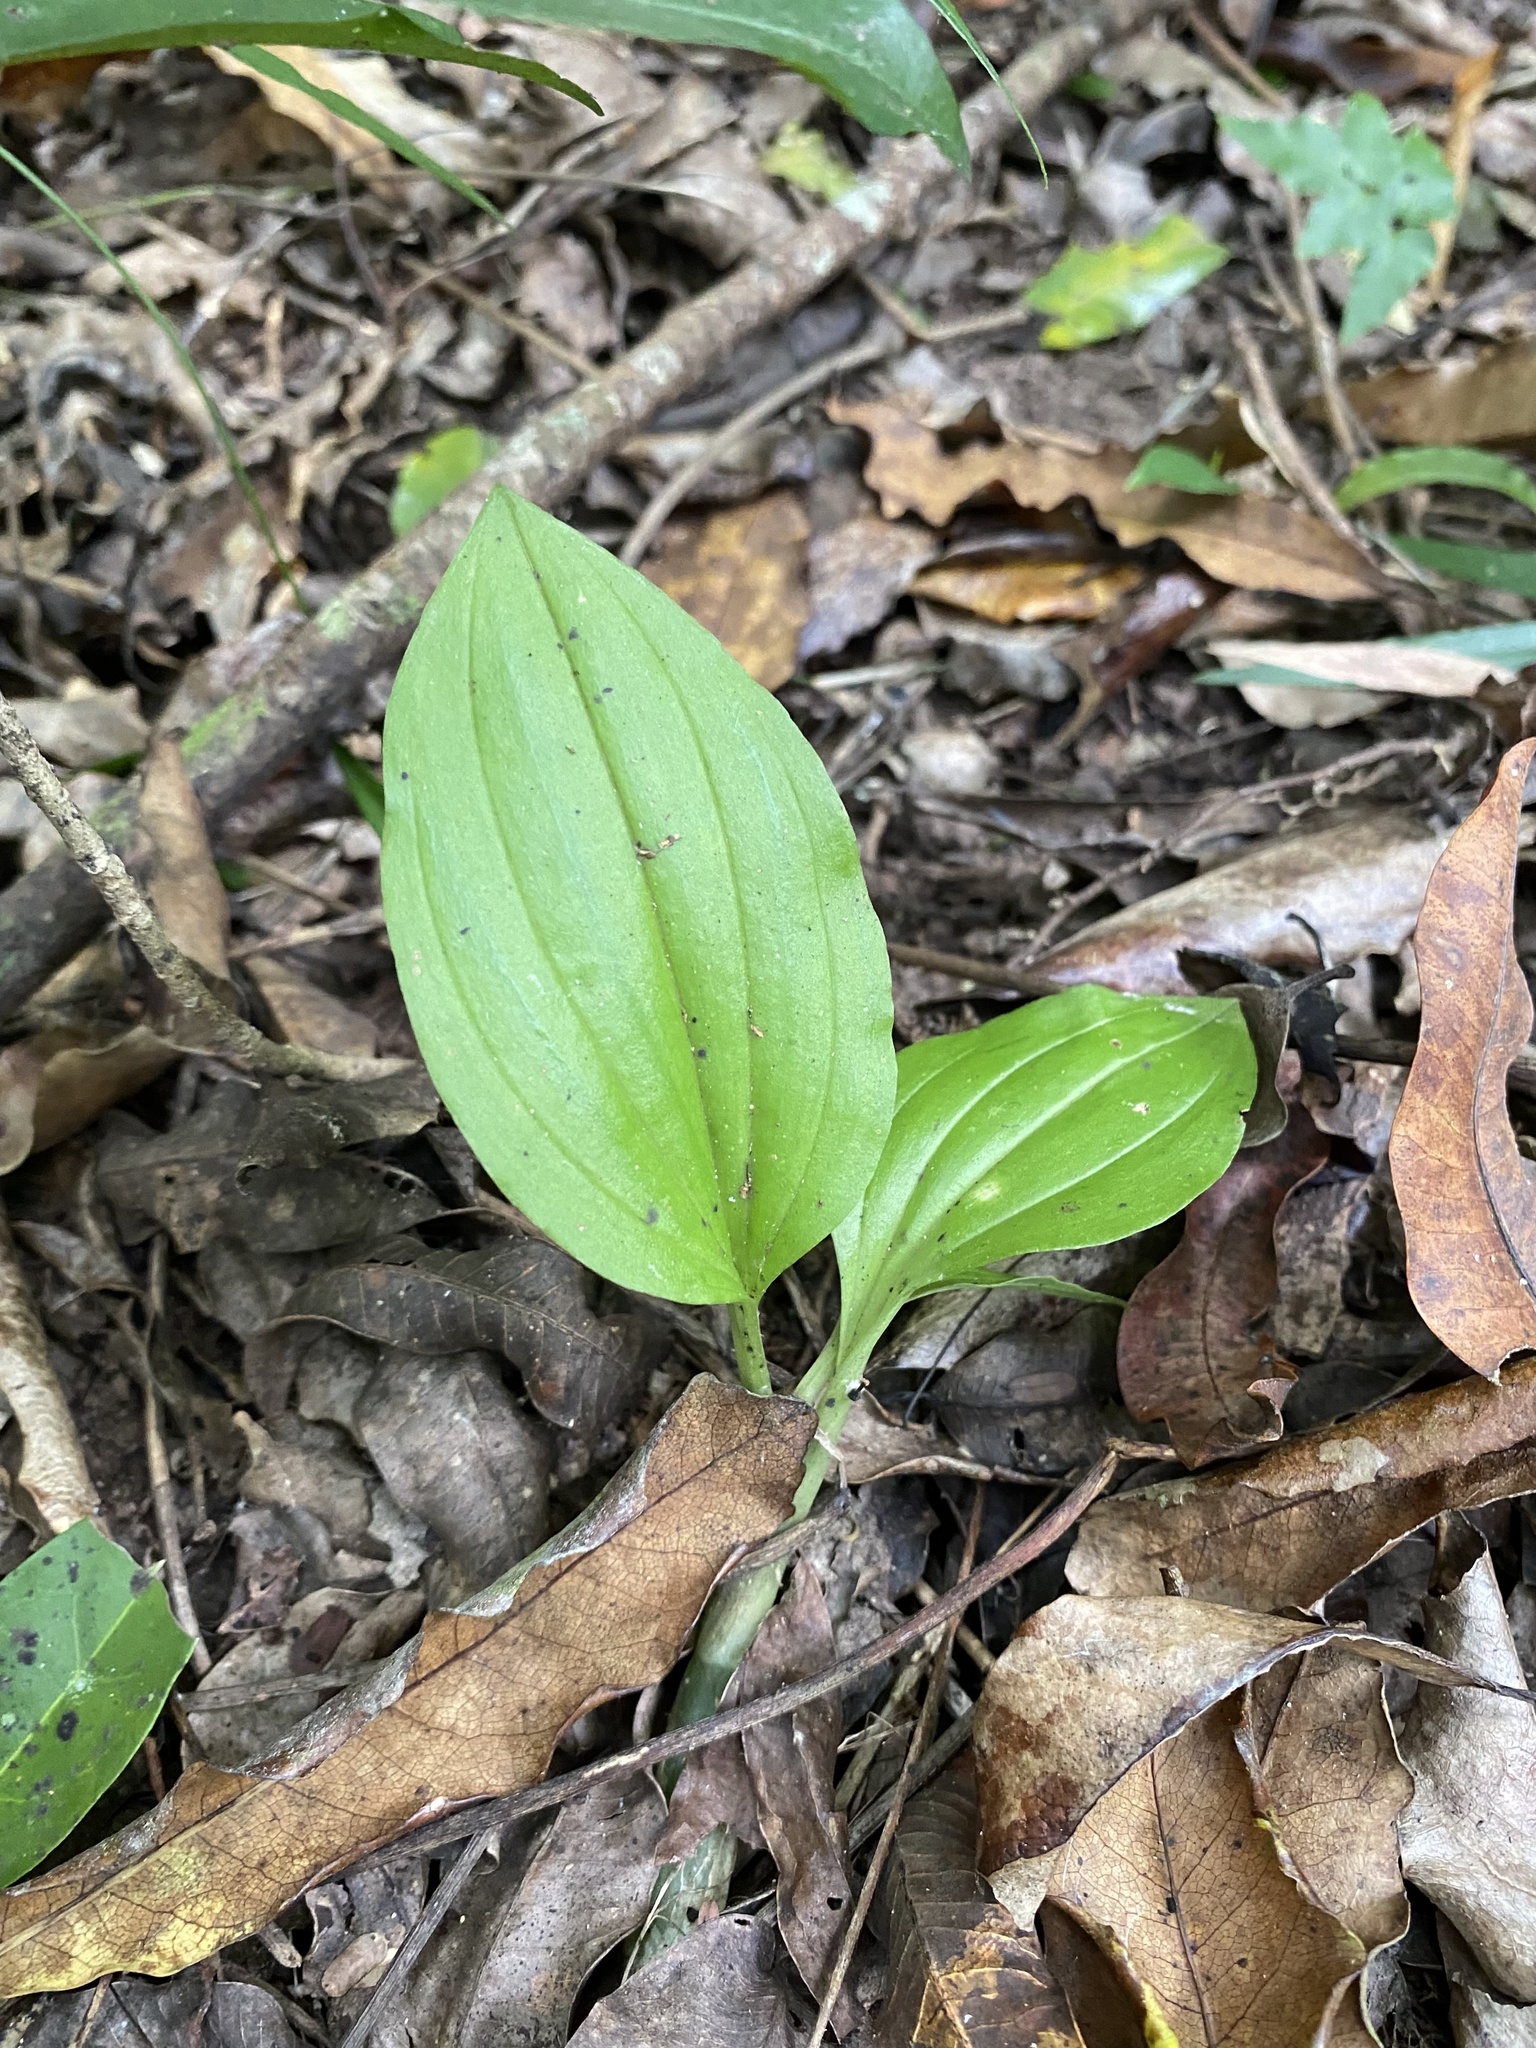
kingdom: Plantae
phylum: Tracheophyta
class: Liliopsida
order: Asparagales
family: Orchidaceae
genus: Liparis
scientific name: Liparis bowkeri
